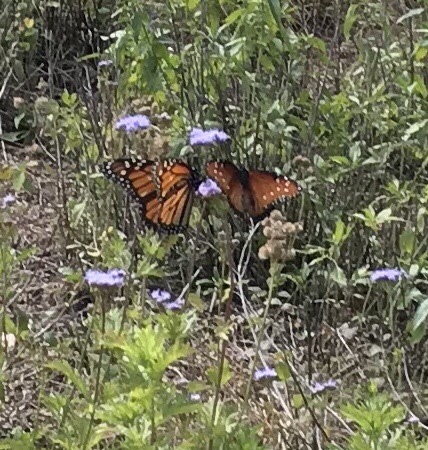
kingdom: Animalia
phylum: Arthropoda
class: Insecta
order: Lepidoptera
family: Nymphalidae
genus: Danaus
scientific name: Danaus plexippus
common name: Monarch
